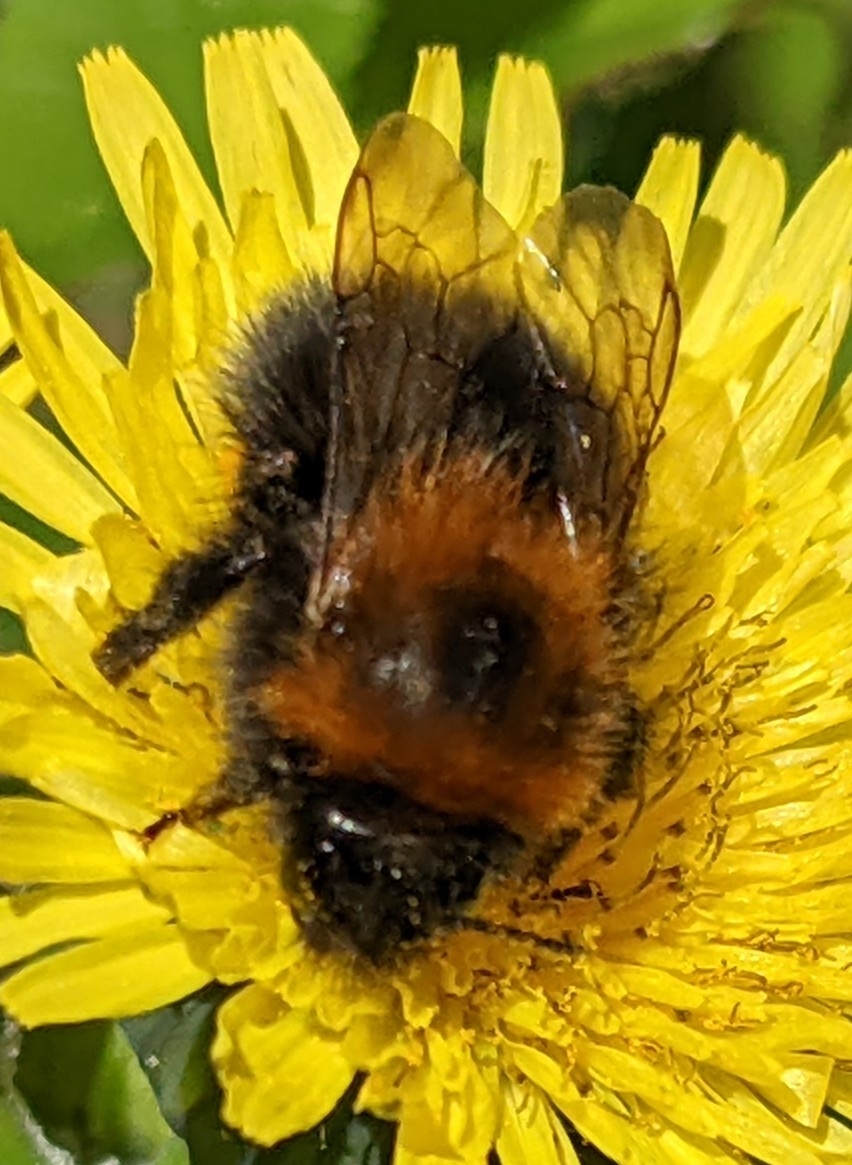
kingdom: Animalia
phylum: Arthropoda
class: Insecta
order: Hymenoptera
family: Apidae
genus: Bombus
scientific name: Bombus hypnorum
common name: New garden bumblebee
